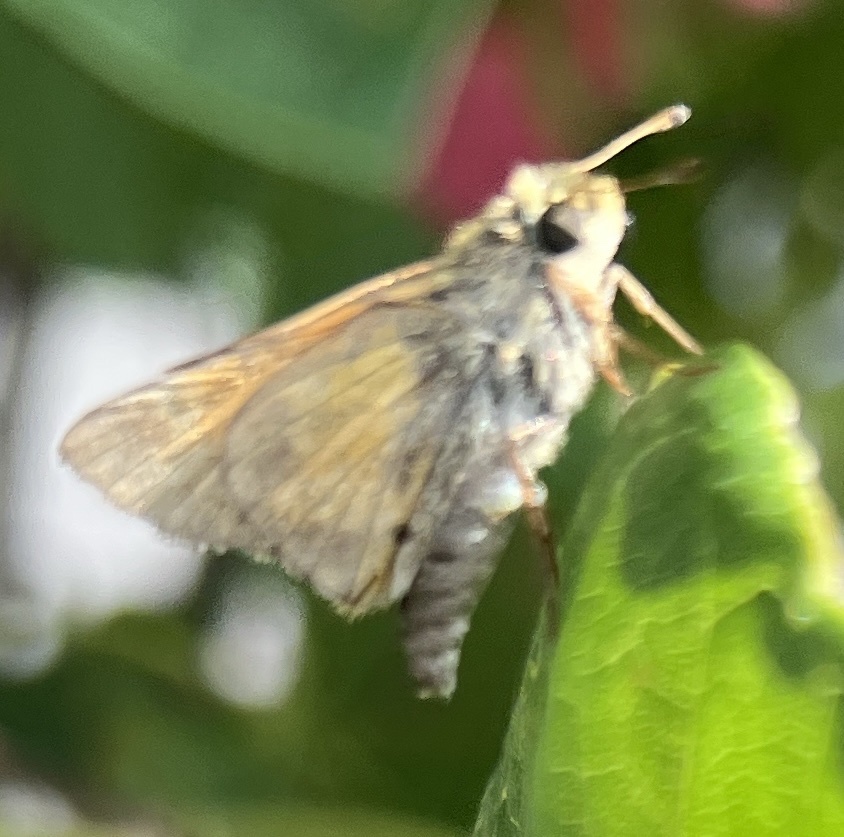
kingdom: Animalia
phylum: Arthropoda
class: Insecta
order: Lepidoptera
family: Hesperiidae
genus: Atalopedes
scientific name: Atalopedes
